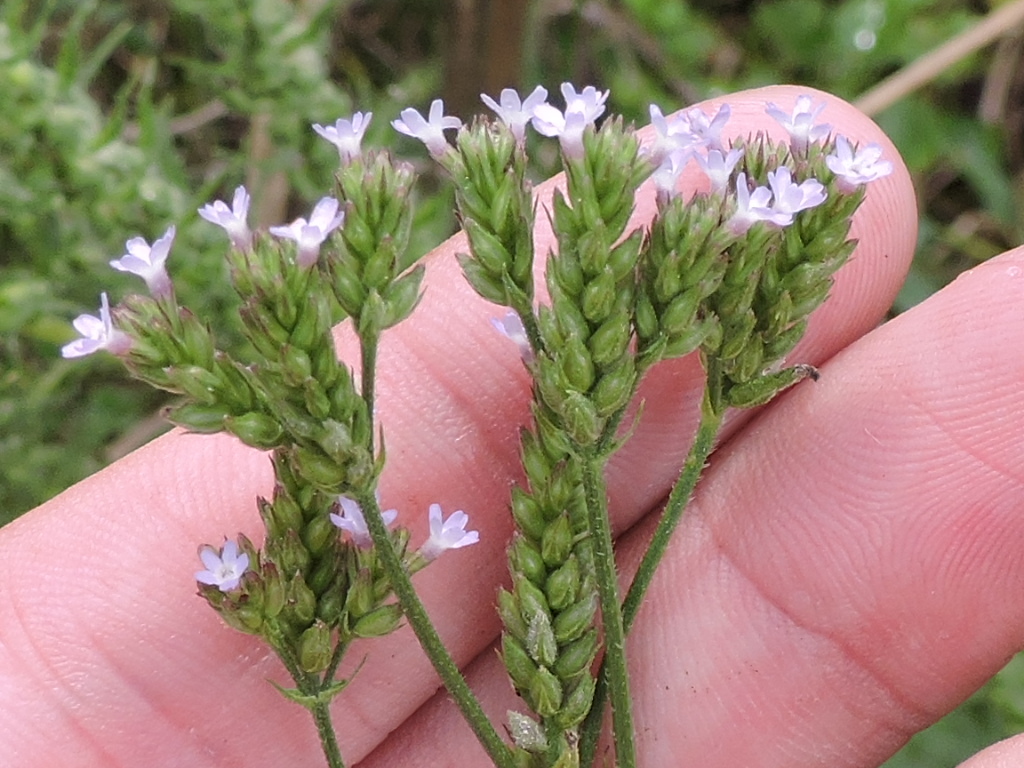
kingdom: Plantae
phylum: Tracheophyta
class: Magnoliopsida
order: Lamiales
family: Verbenaceae
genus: Verbena
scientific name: Verbena brasiliensis
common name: Brazilian vervain
